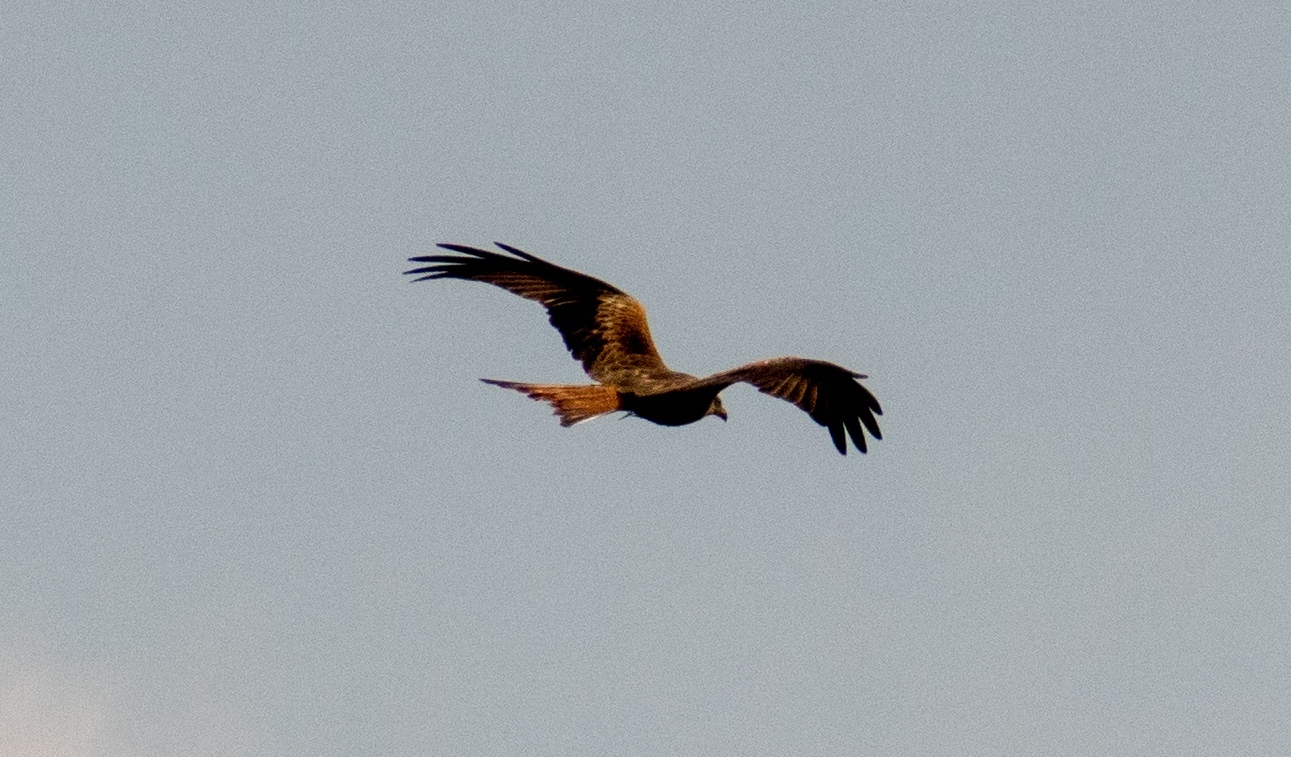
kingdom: Animalia
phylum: Chordata
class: Aves
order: Accipitriformes
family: Accipitridae
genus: Milvus
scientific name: Milvus milvus
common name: Red kite
